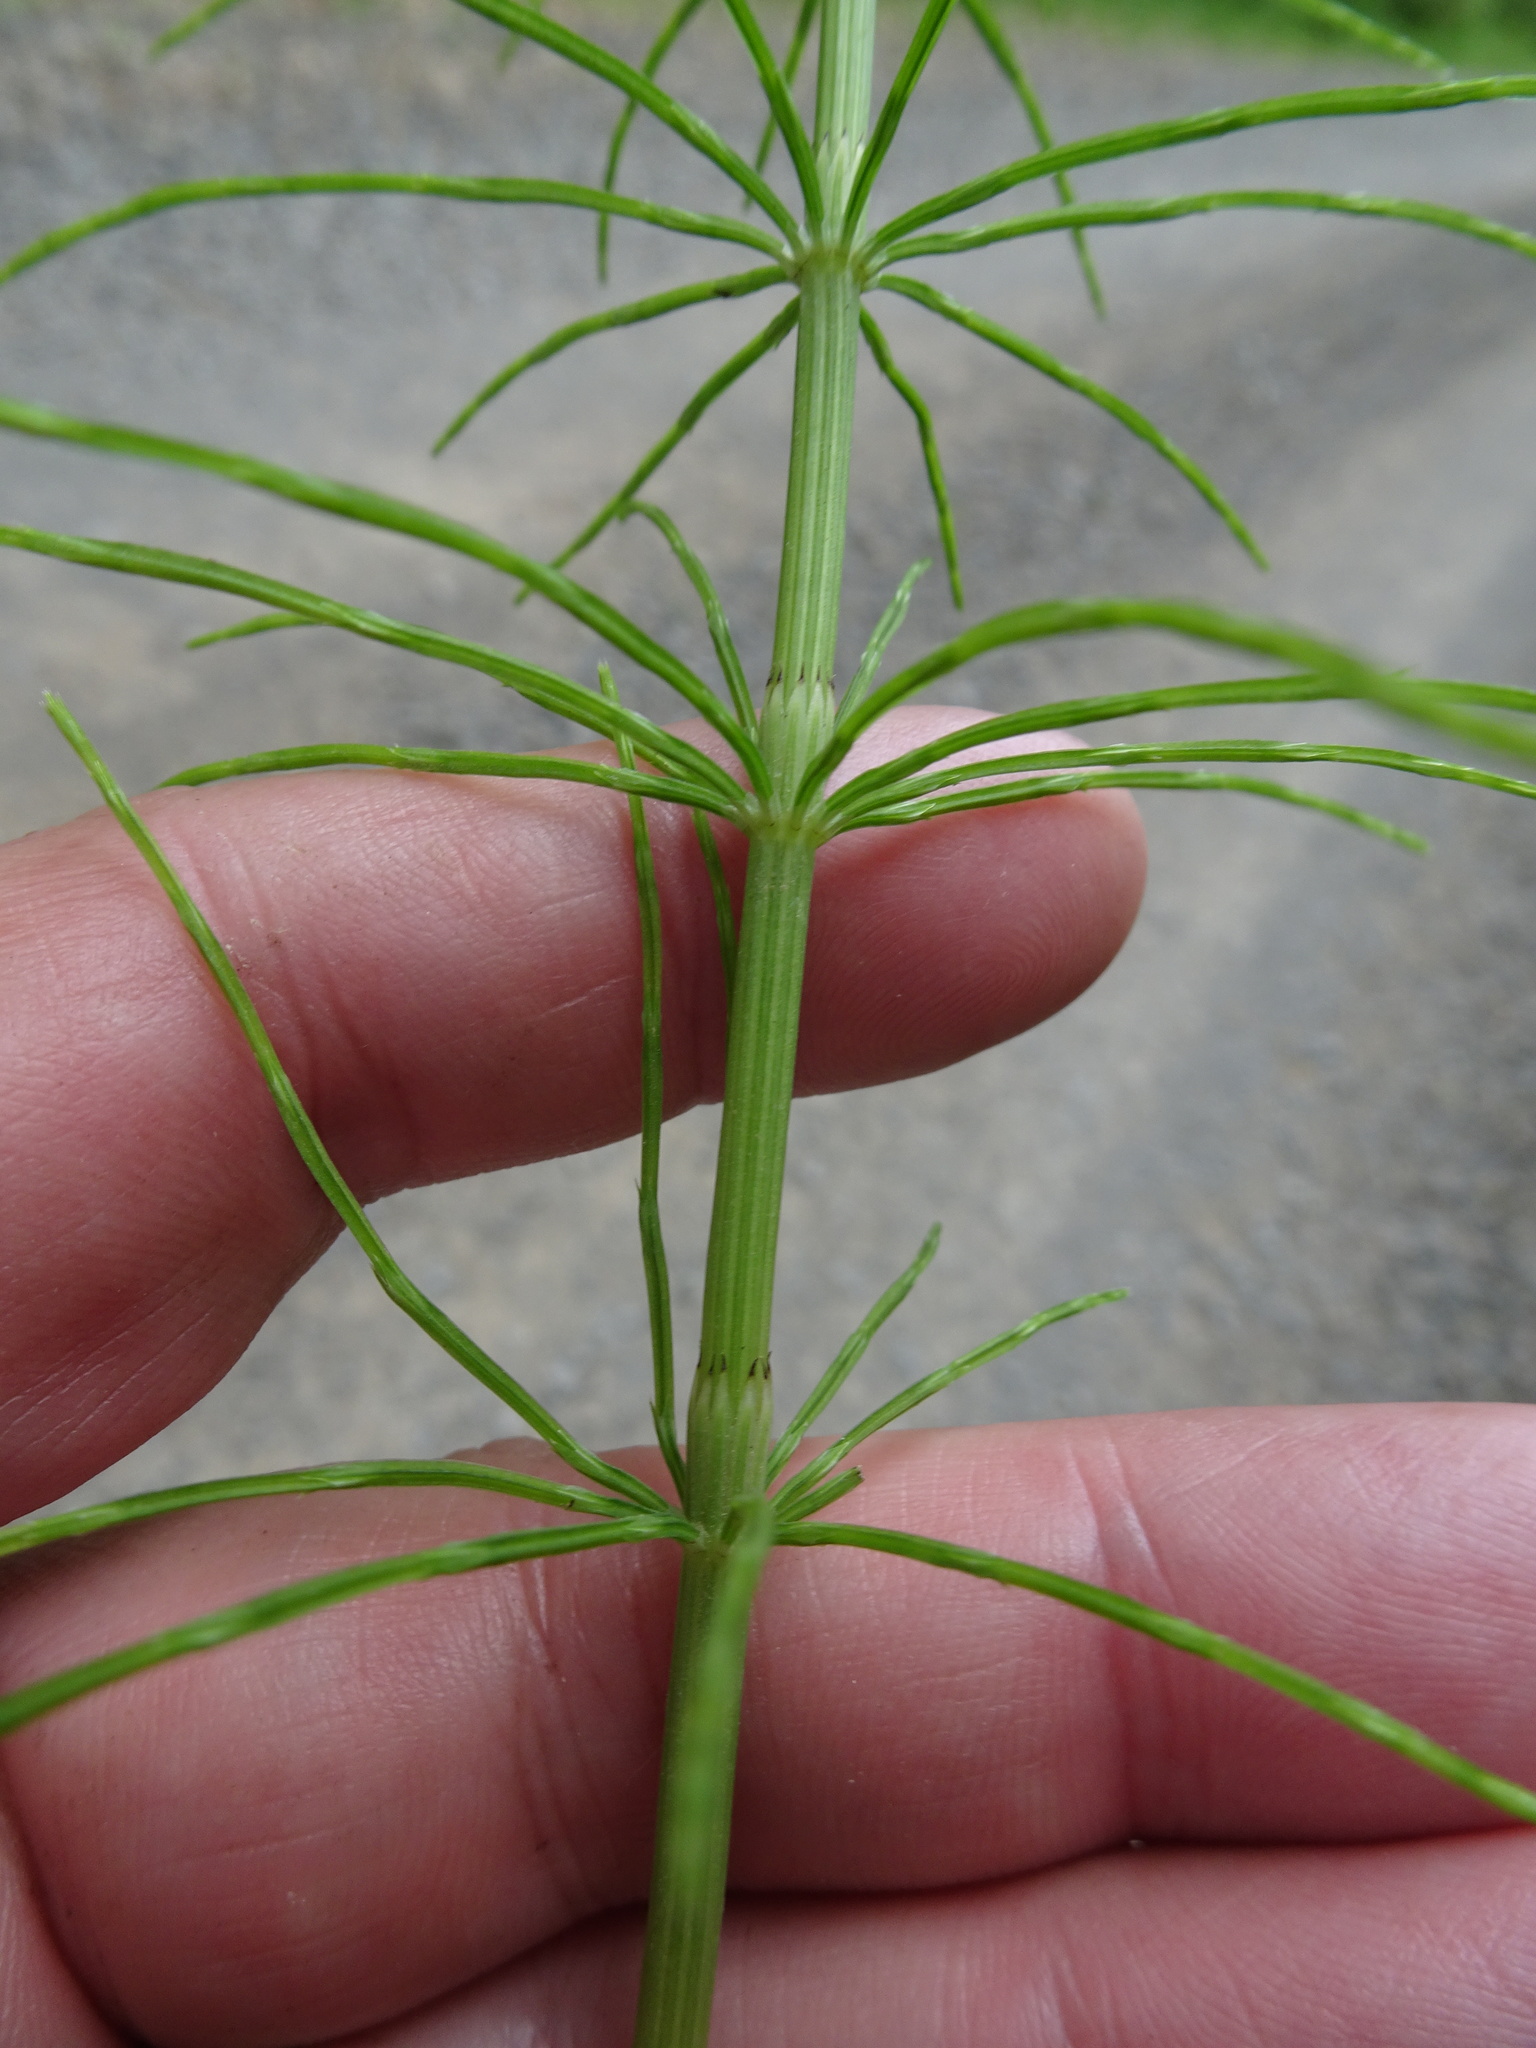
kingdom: Plantae
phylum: Tracheophyta
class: Polypodiopsida
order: Equisetales
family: Equisetaceae
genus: Equisetum
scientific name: Equisetum arvense
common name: Field horsetail
